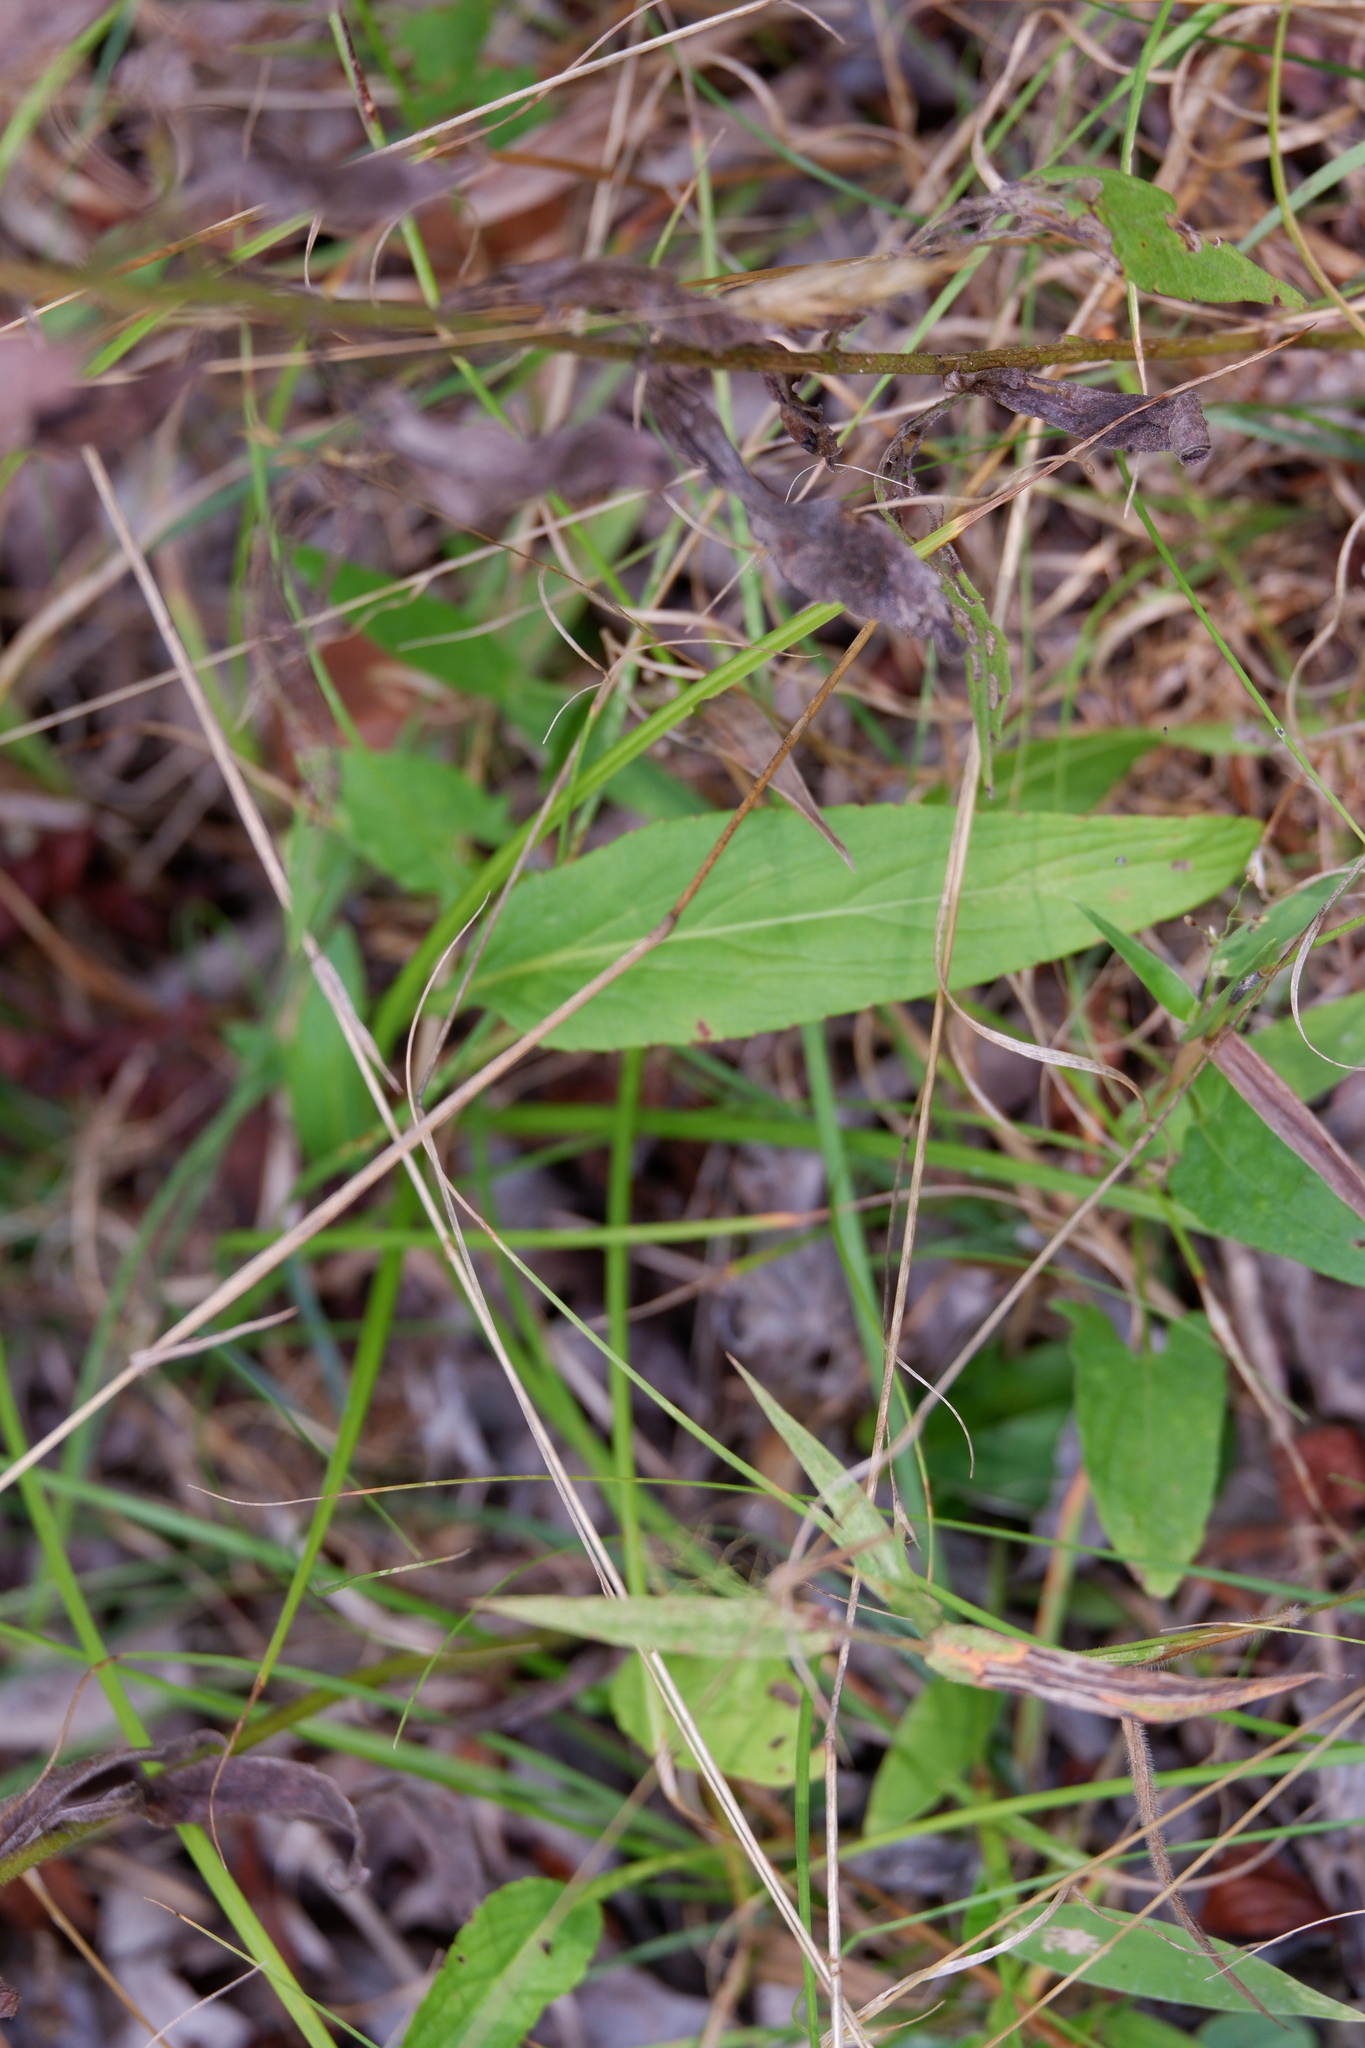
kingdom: Plantae
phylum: Tracheophyta
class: Magnoliopsida
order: Malpighiales
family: Violaceae
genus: Viola
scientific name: Viola lanceolata
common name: Bog white violet
